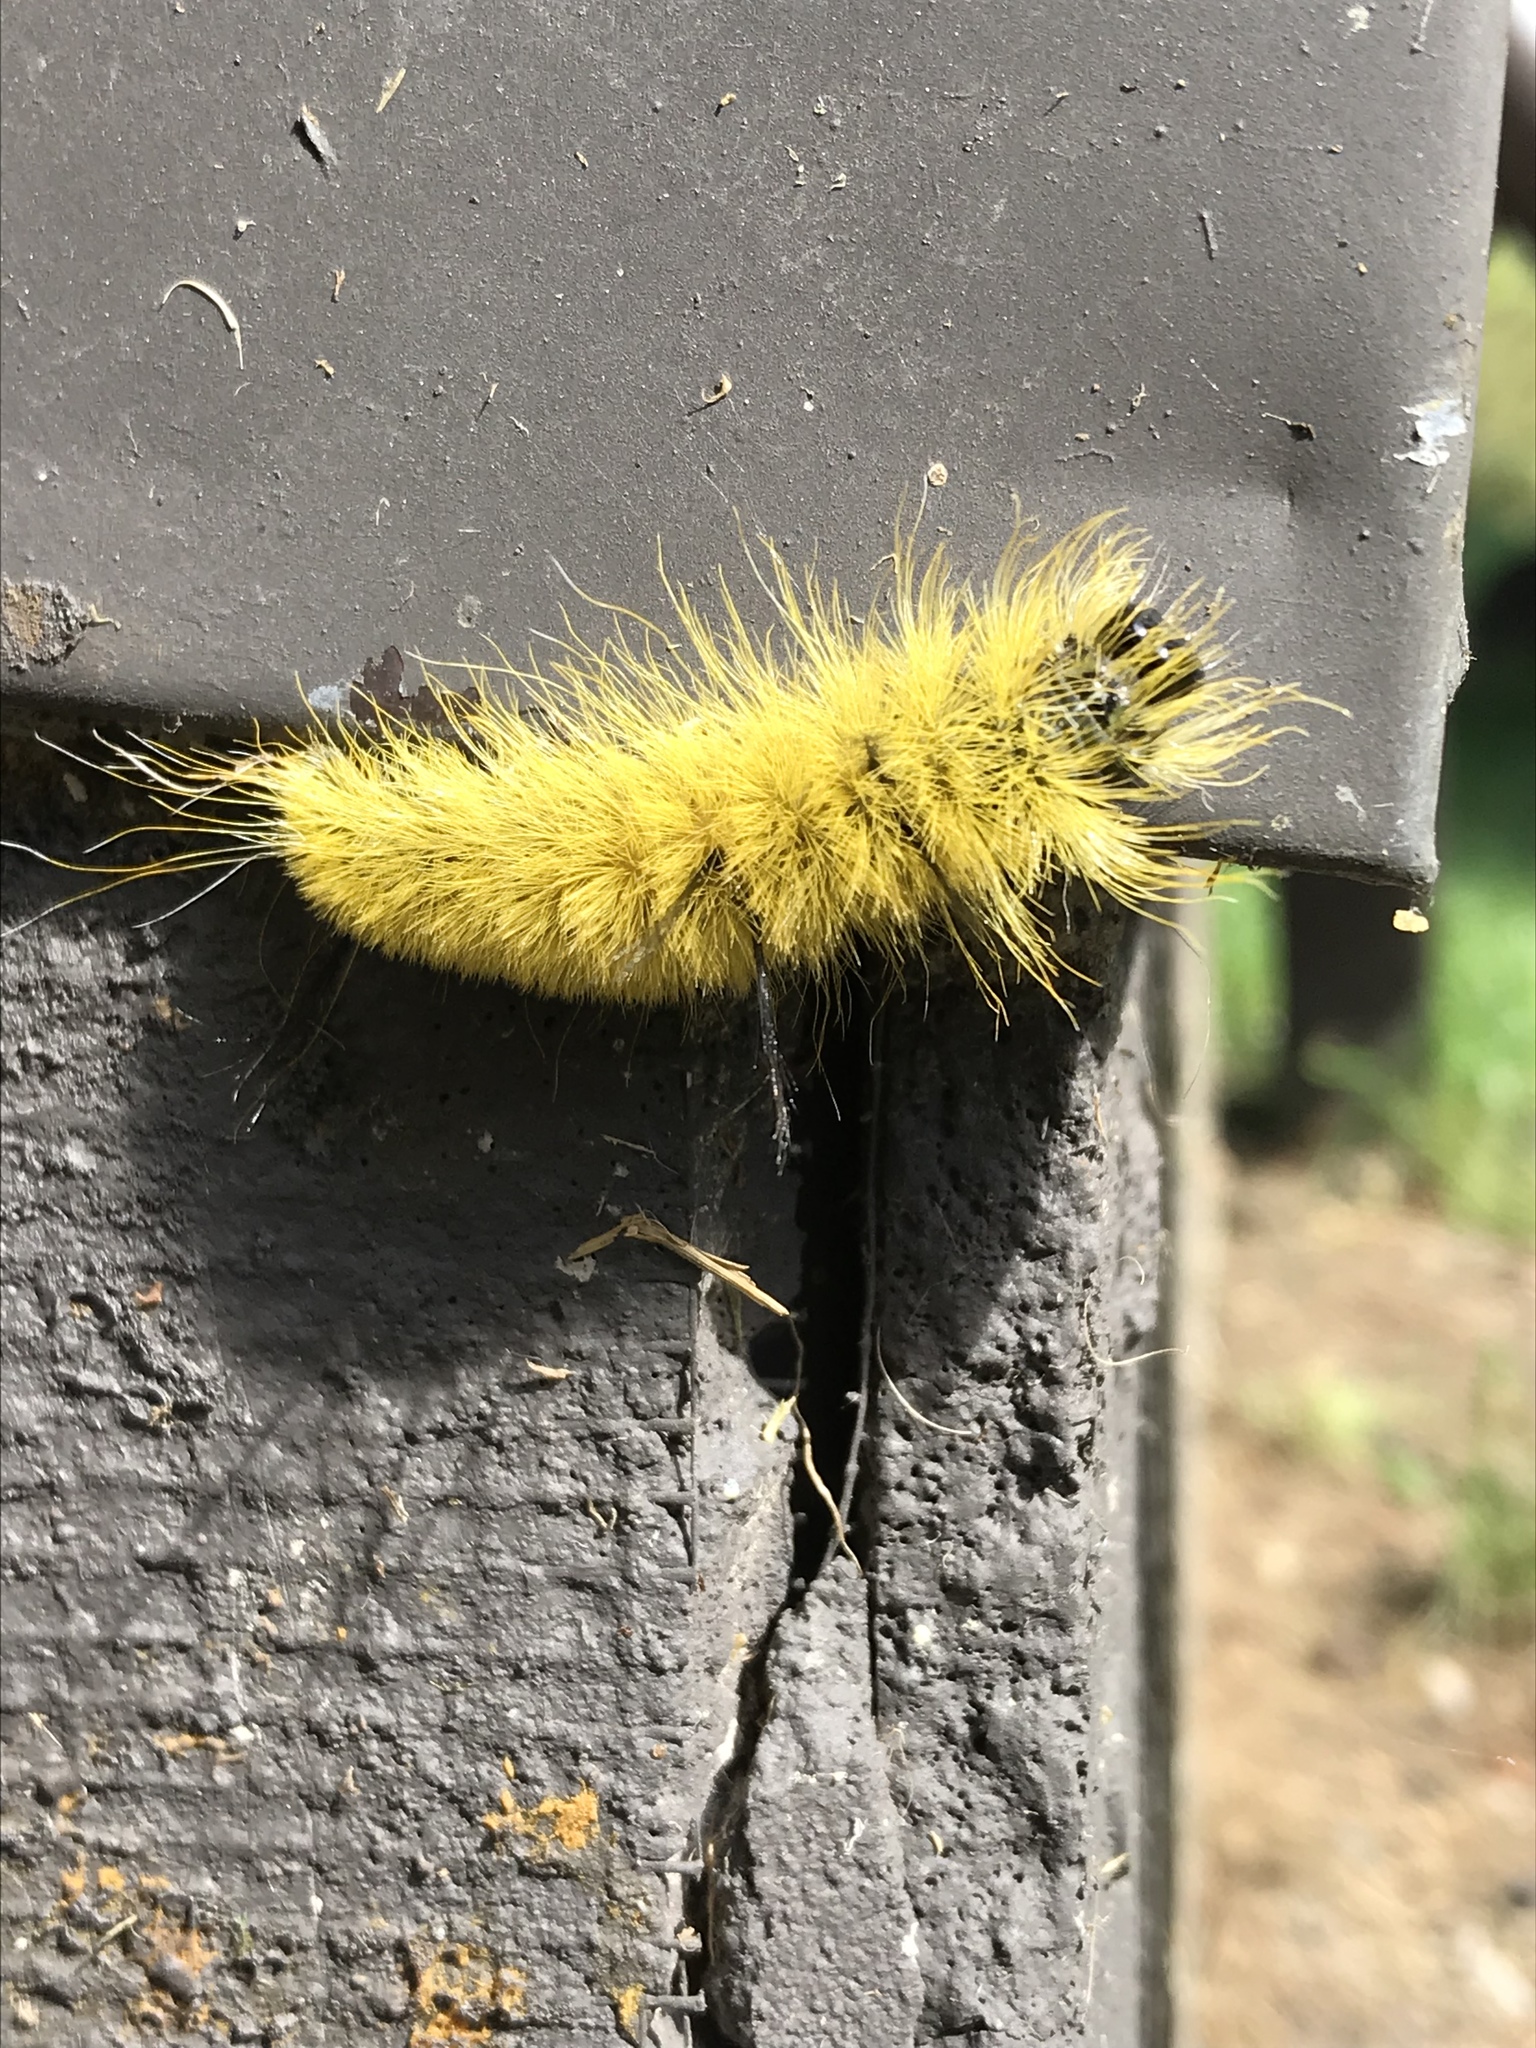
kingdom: Animalia
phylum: Arthropoda
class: Insecta
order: Lepidoptera
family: Noctuidae
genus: Acronicta
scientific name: Acronicta americana
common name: American dagger
